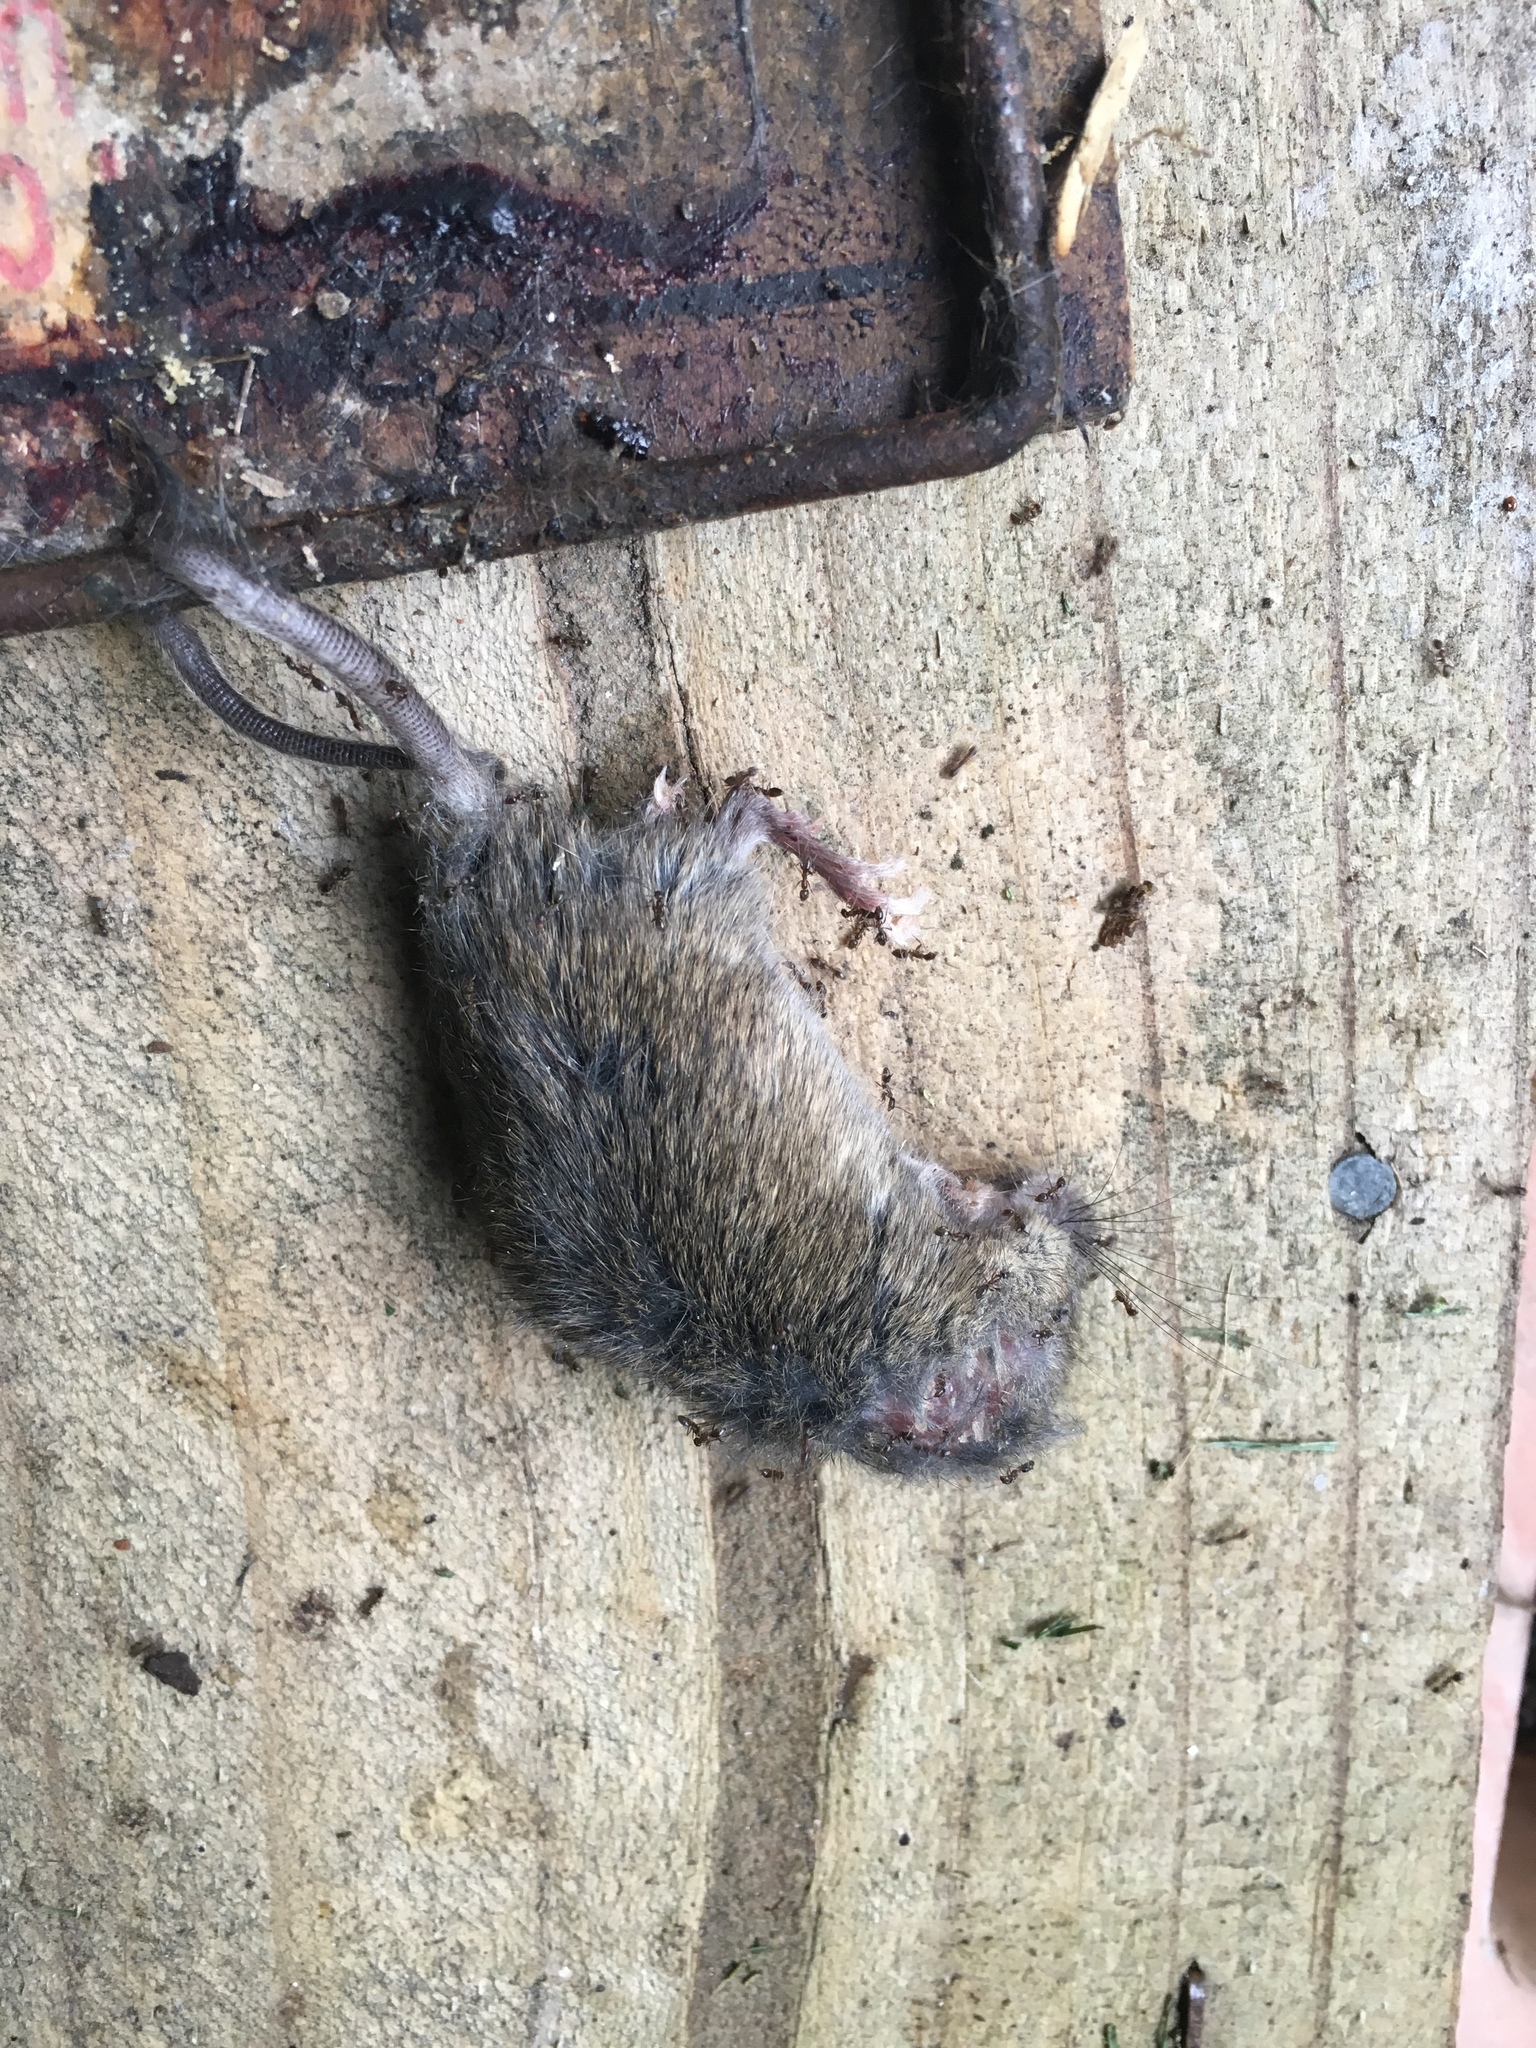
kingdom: Animalia
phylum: Chordata
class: Mammalia
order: Rodentia
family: Muridae
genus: Mus
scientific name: Mus musculus
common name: House mouse
